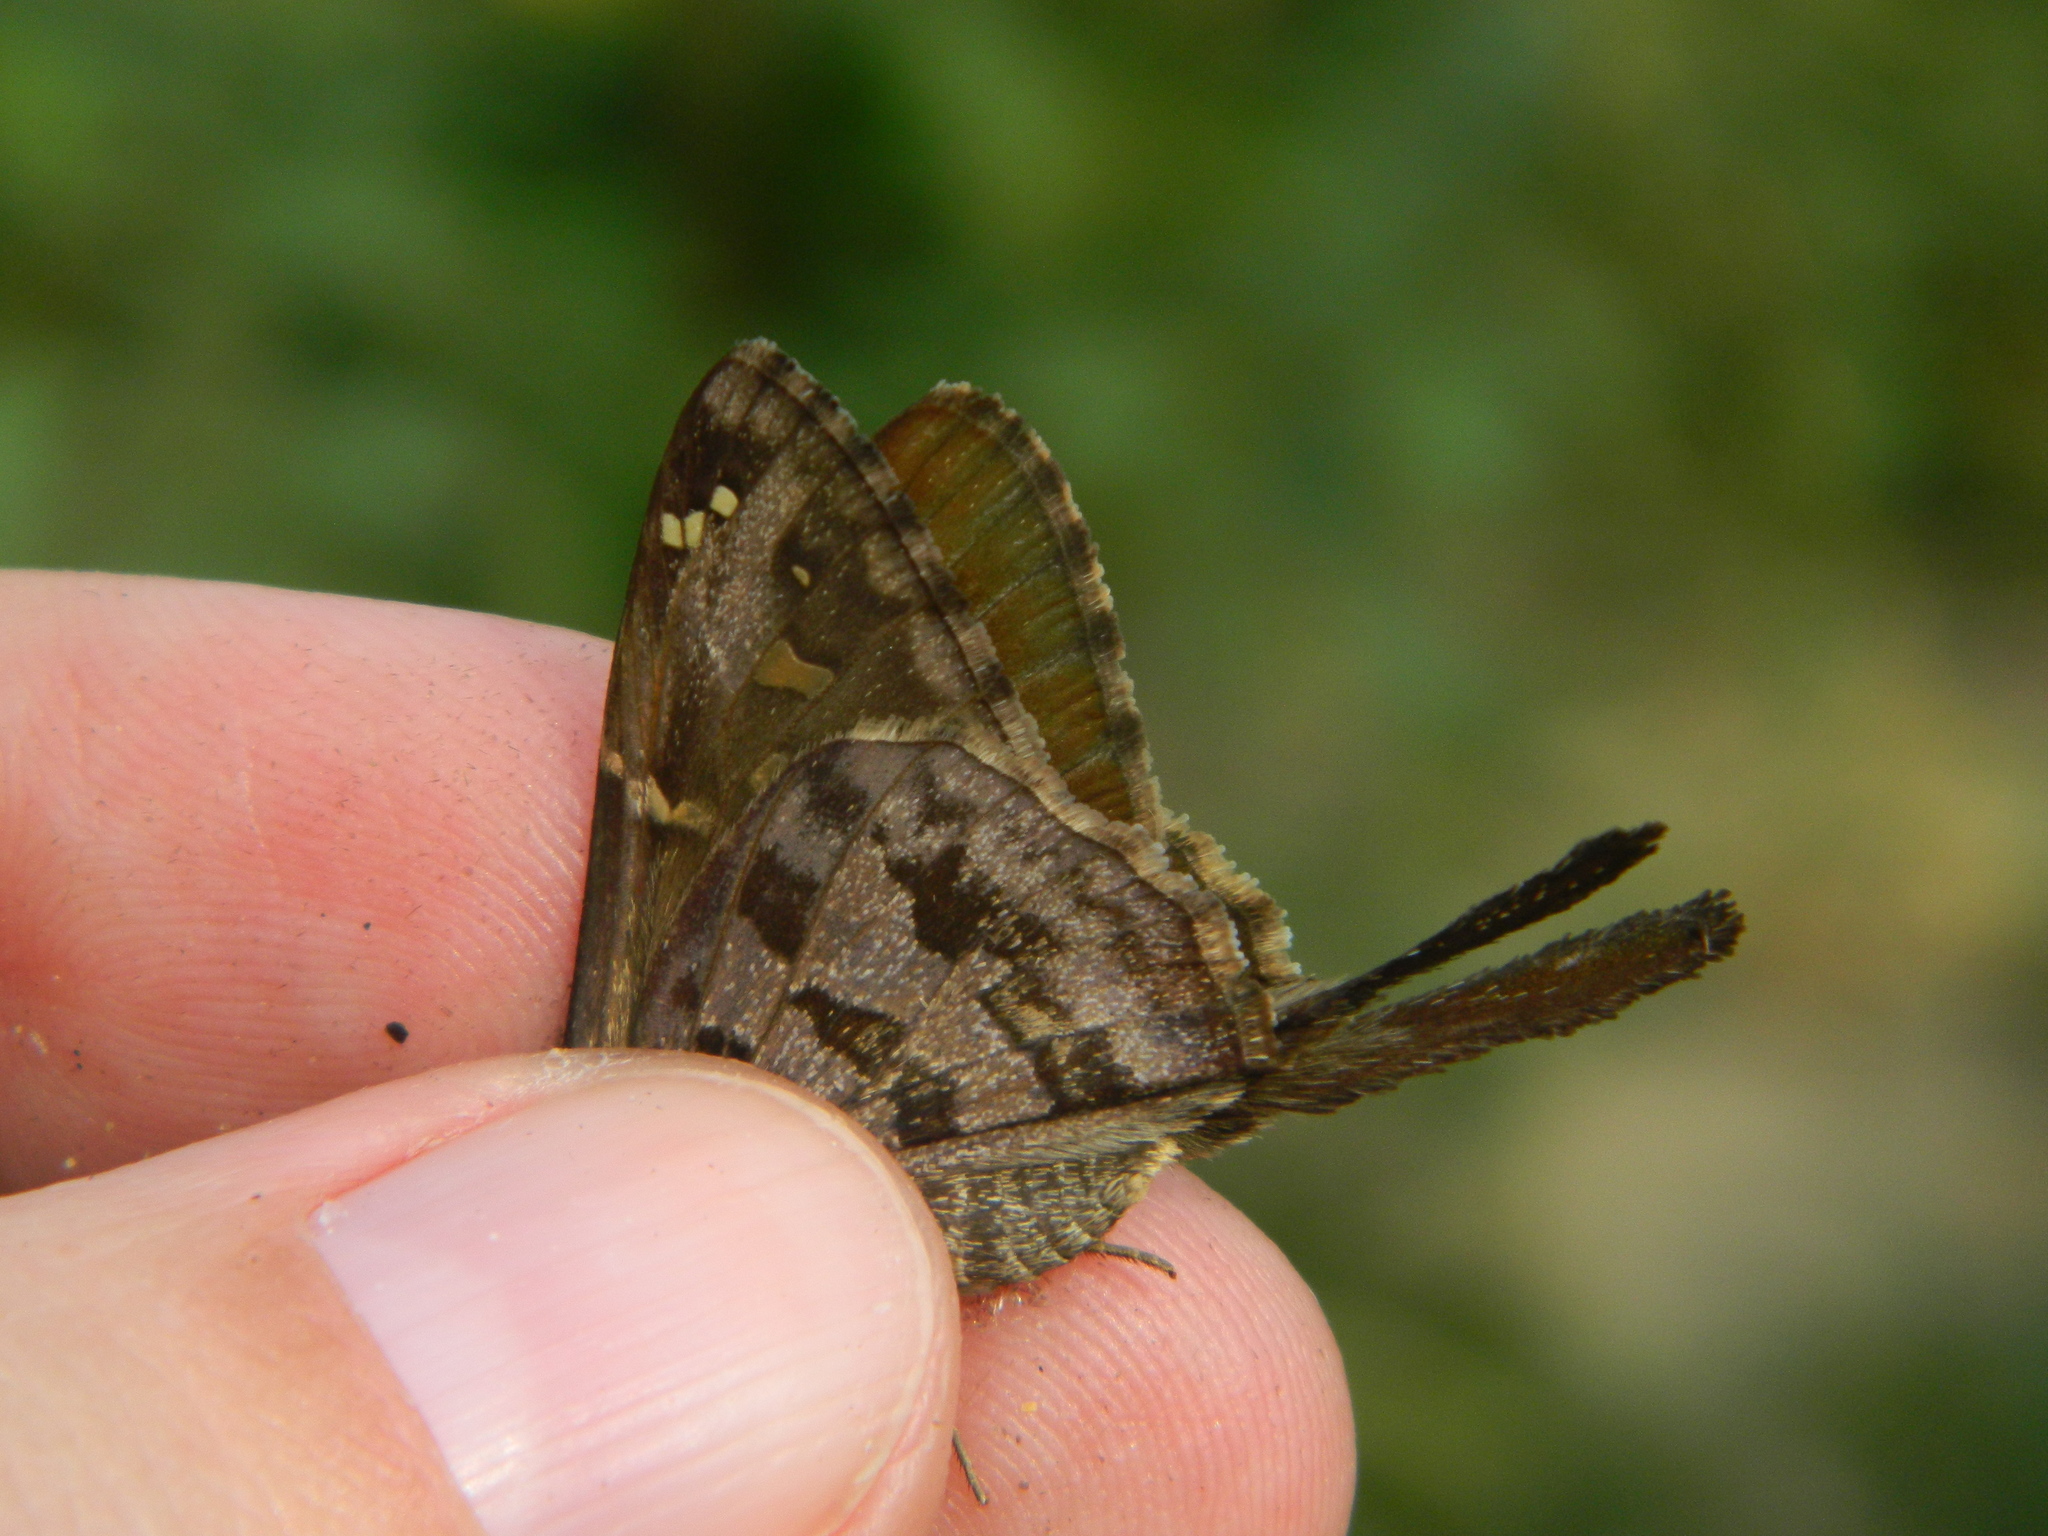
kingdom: Animalia
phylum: Arthropoda
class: Insecta
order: Lepidoptera
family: Hesperiidae
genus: Thorybes
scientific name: Thorybes
